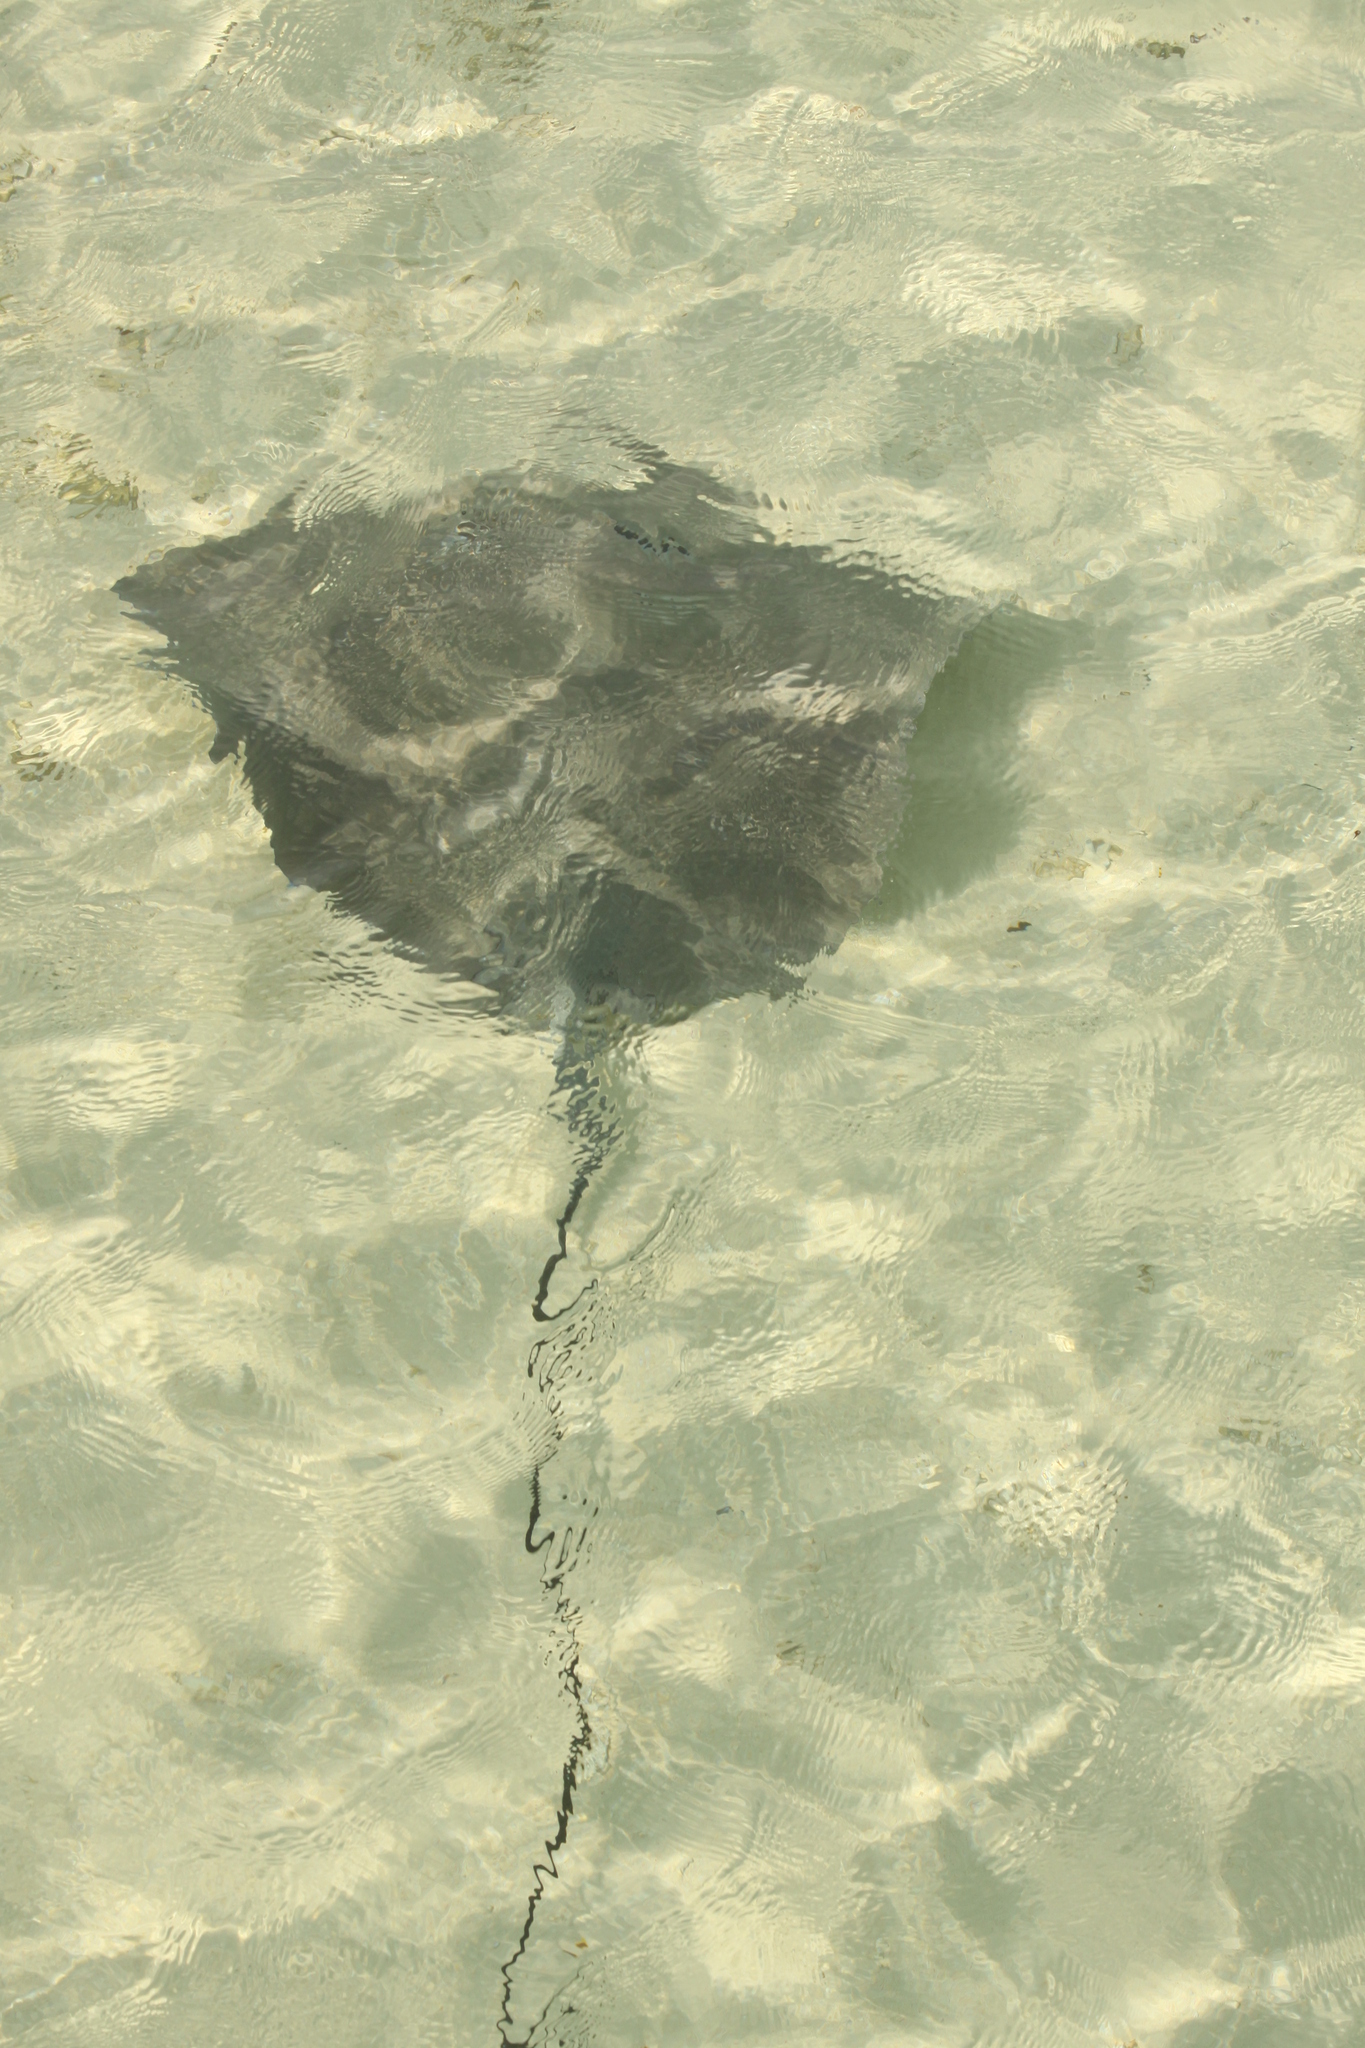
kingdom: Animalia
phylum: Chordata
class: Elasmobranchii
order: Myliobatiformes
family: Dasyatidae
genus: Pateobatis
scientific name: Pateobatis fai
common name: Pink whipray
